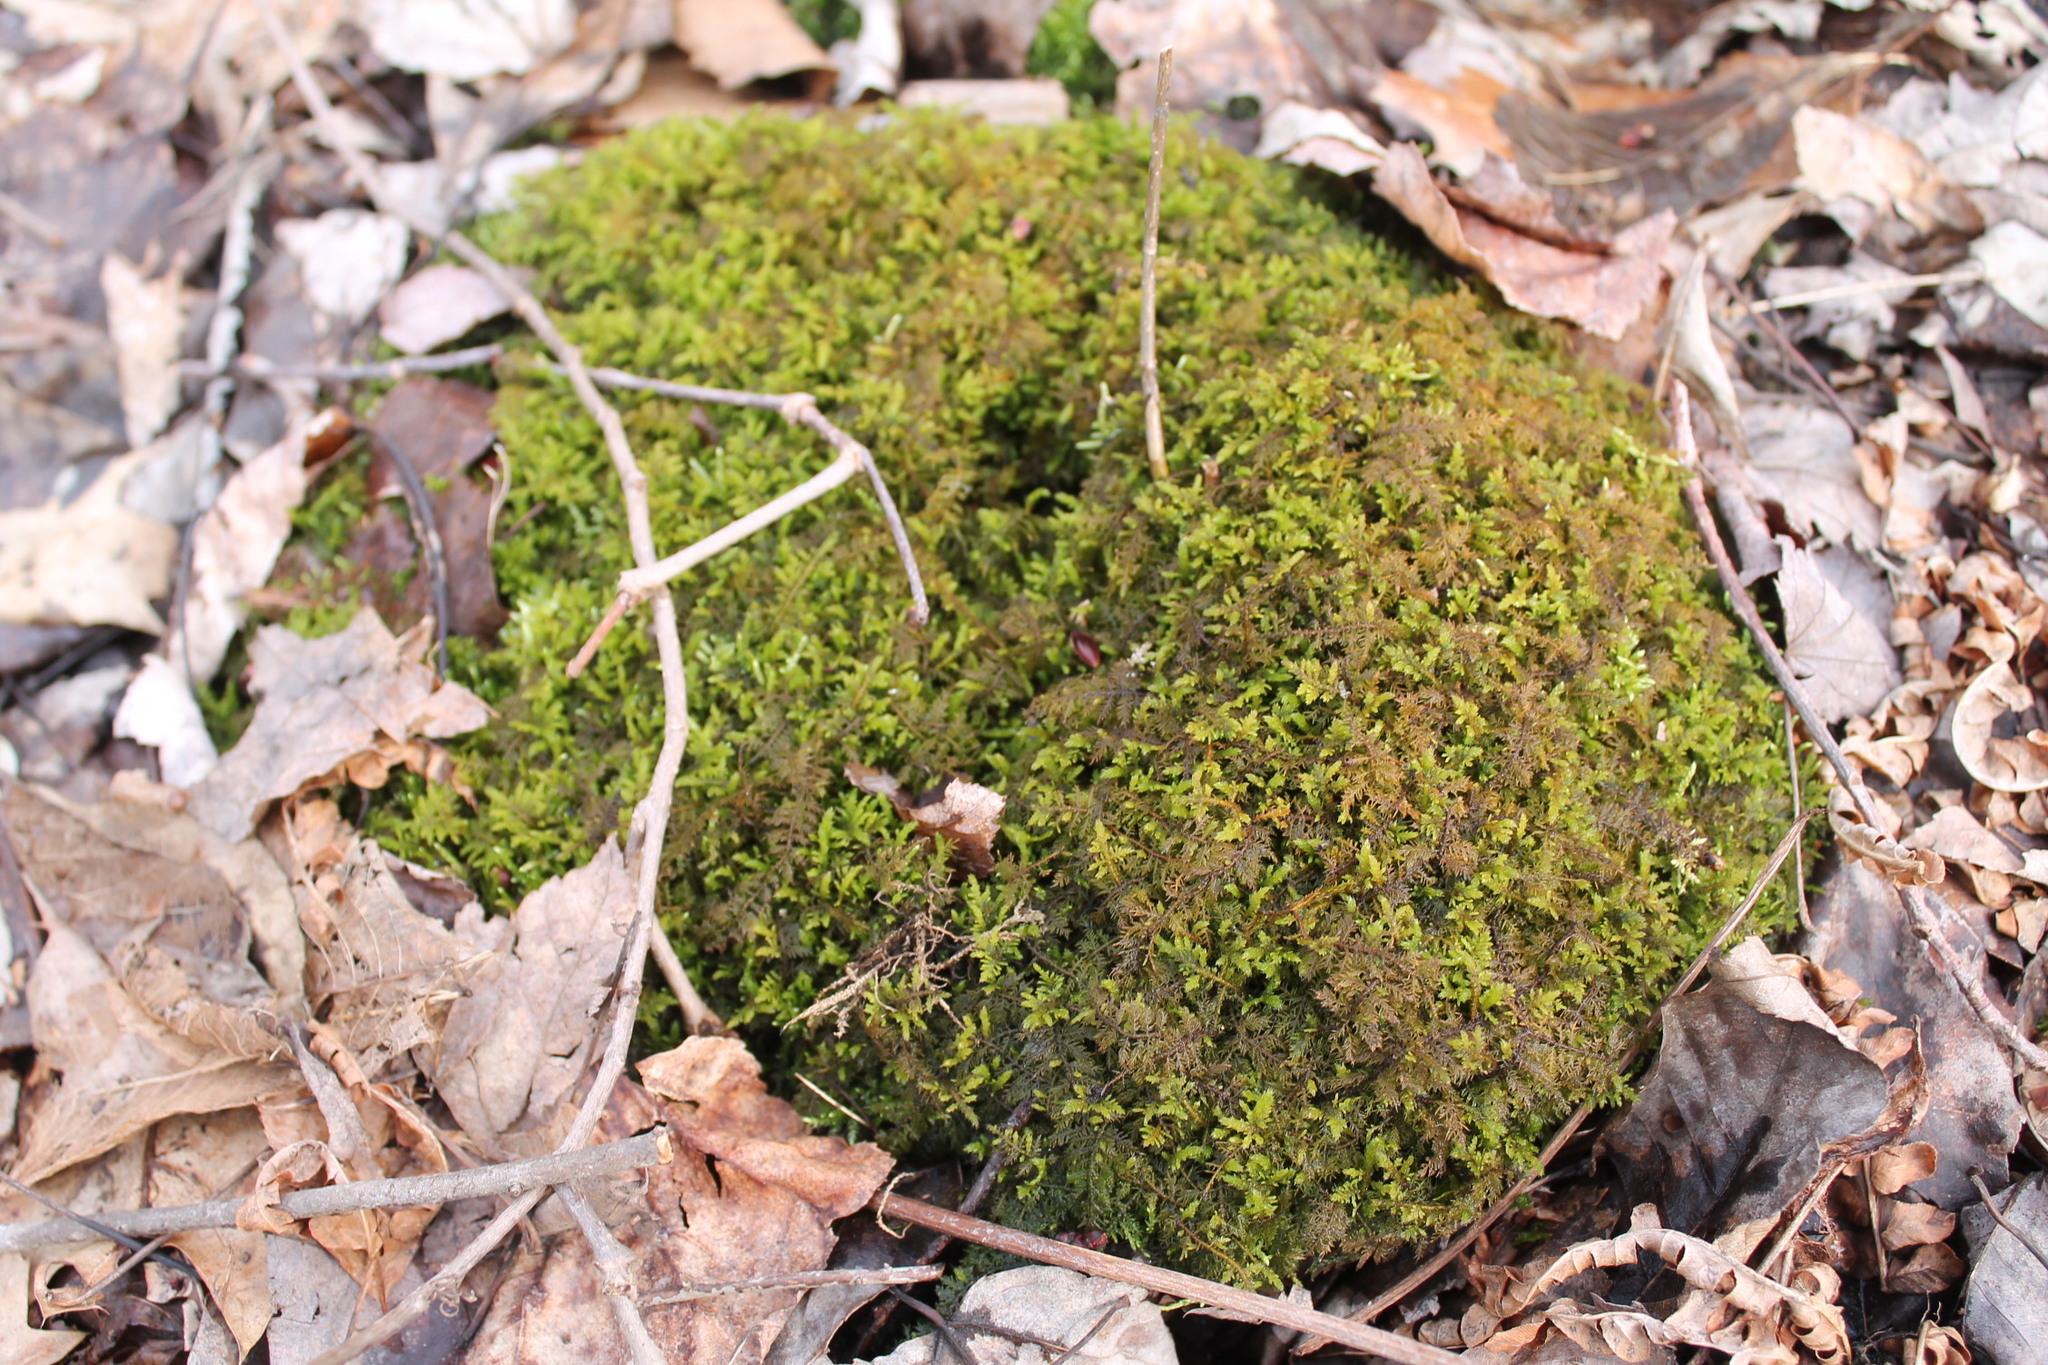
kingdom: Plantae
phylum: Bryophyta
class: Bryopsida
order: Hypnales
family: Thuidiaceae
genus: Thuidium
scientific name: Thuidium delicatulum
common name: Delicate fern moss
